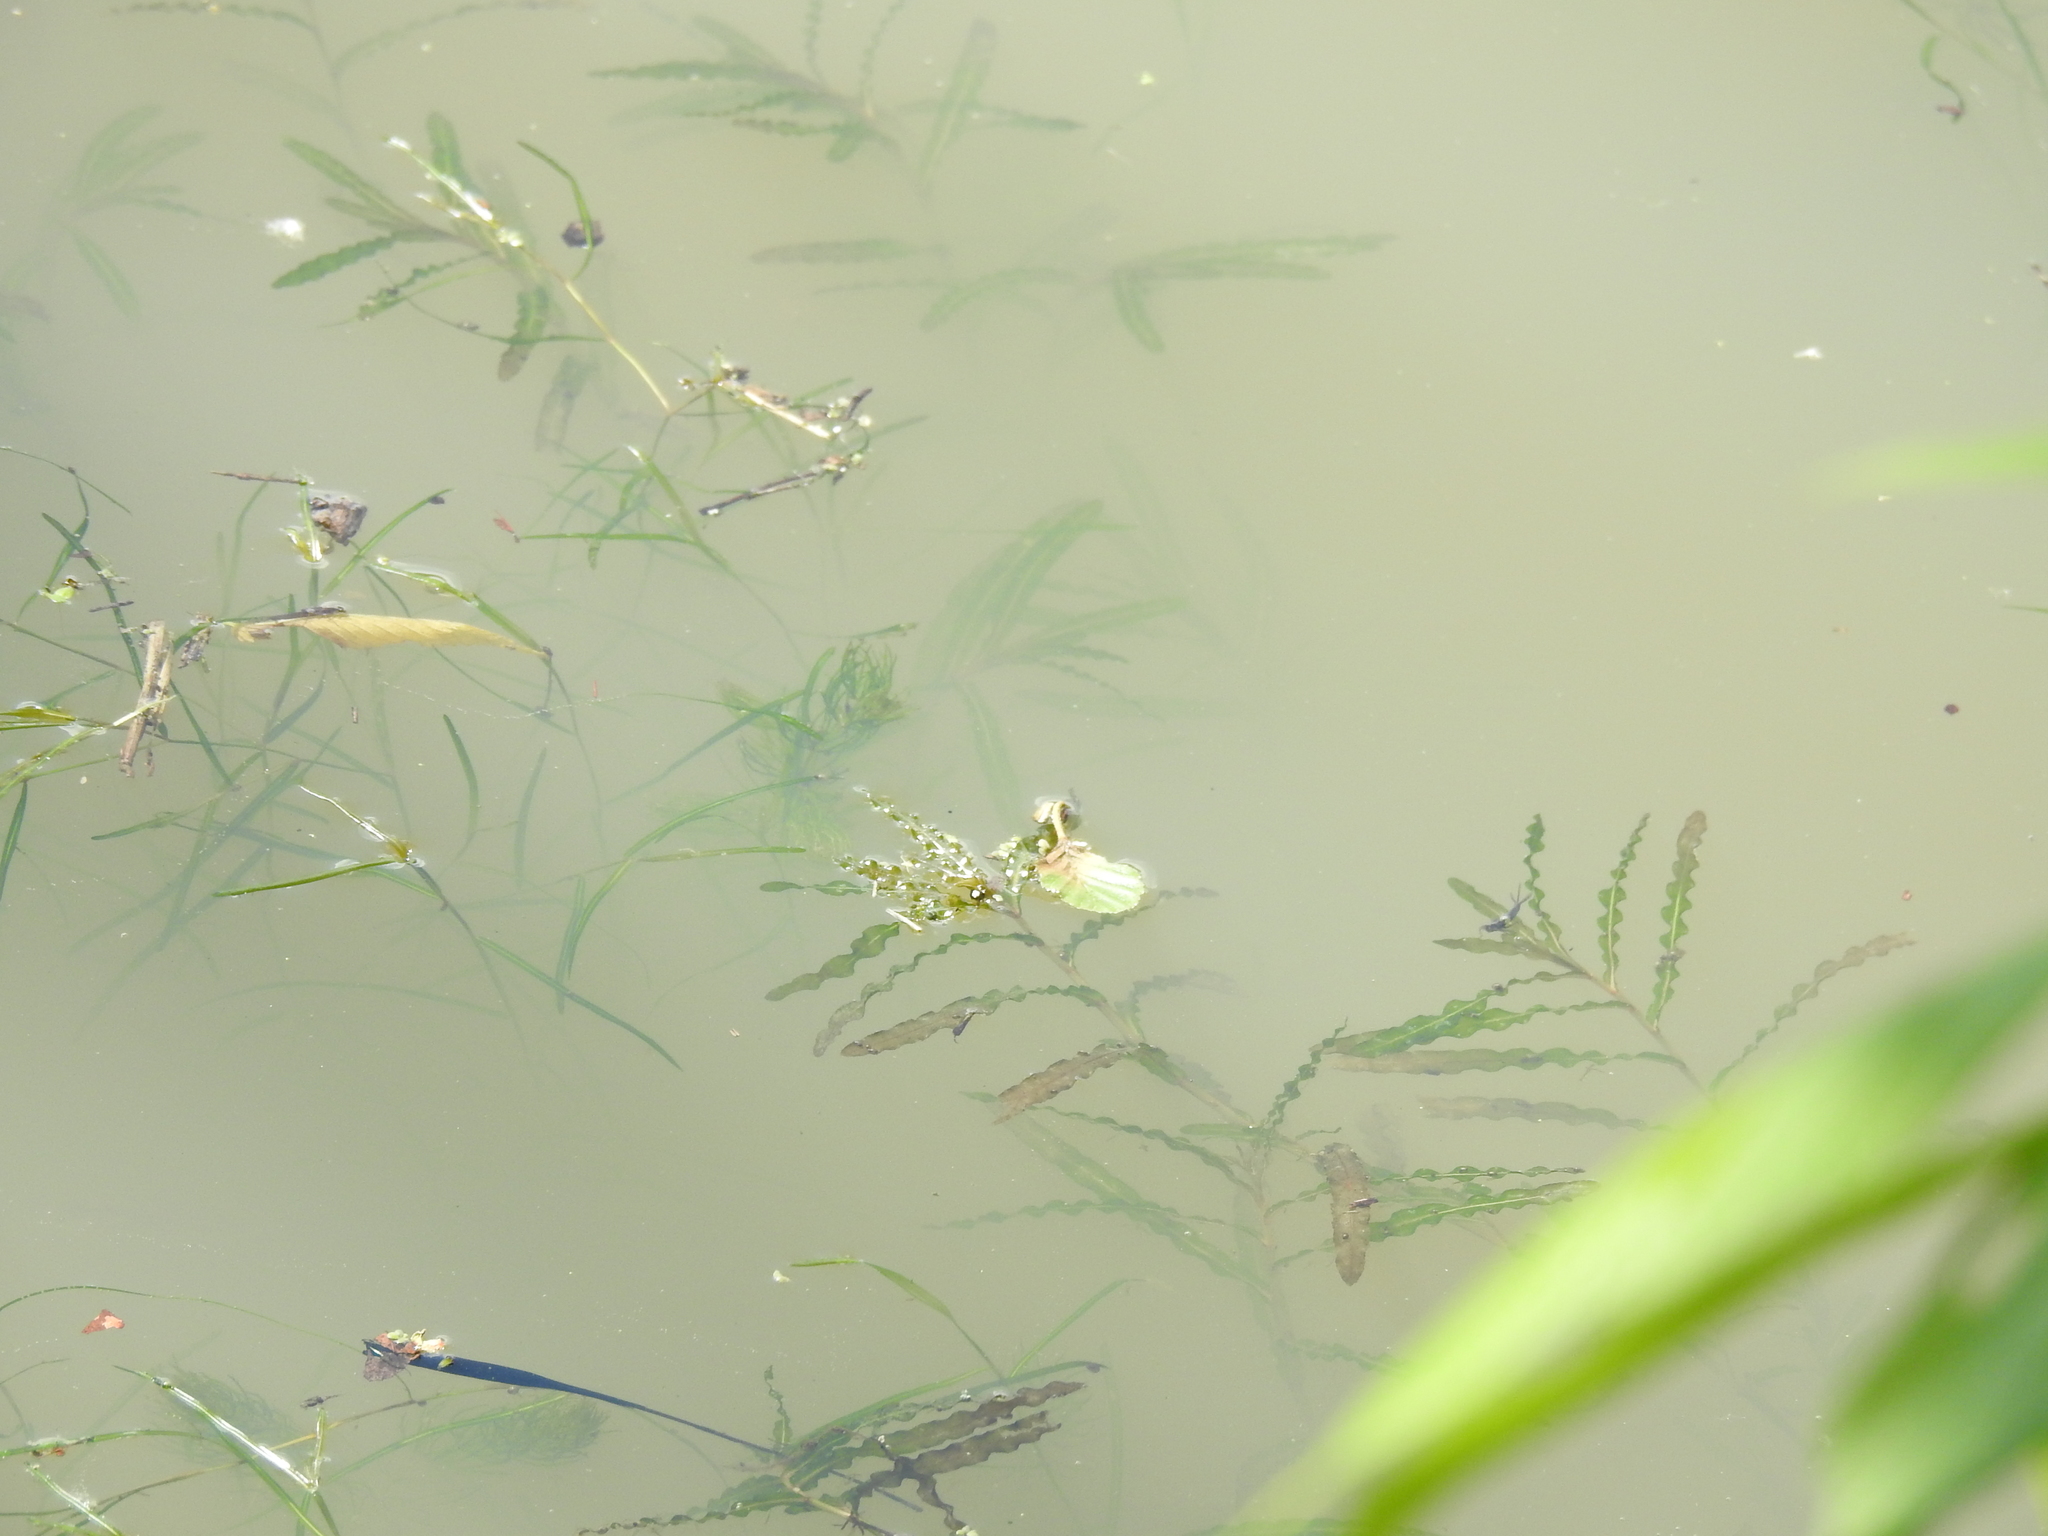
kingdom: Plantae
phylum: Tracheophyta
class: Liliopsida
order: Alismatales
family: Potamogetonaceae
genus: Potamogeton
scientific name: Potamogeton crispus
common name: Curled pondweed
